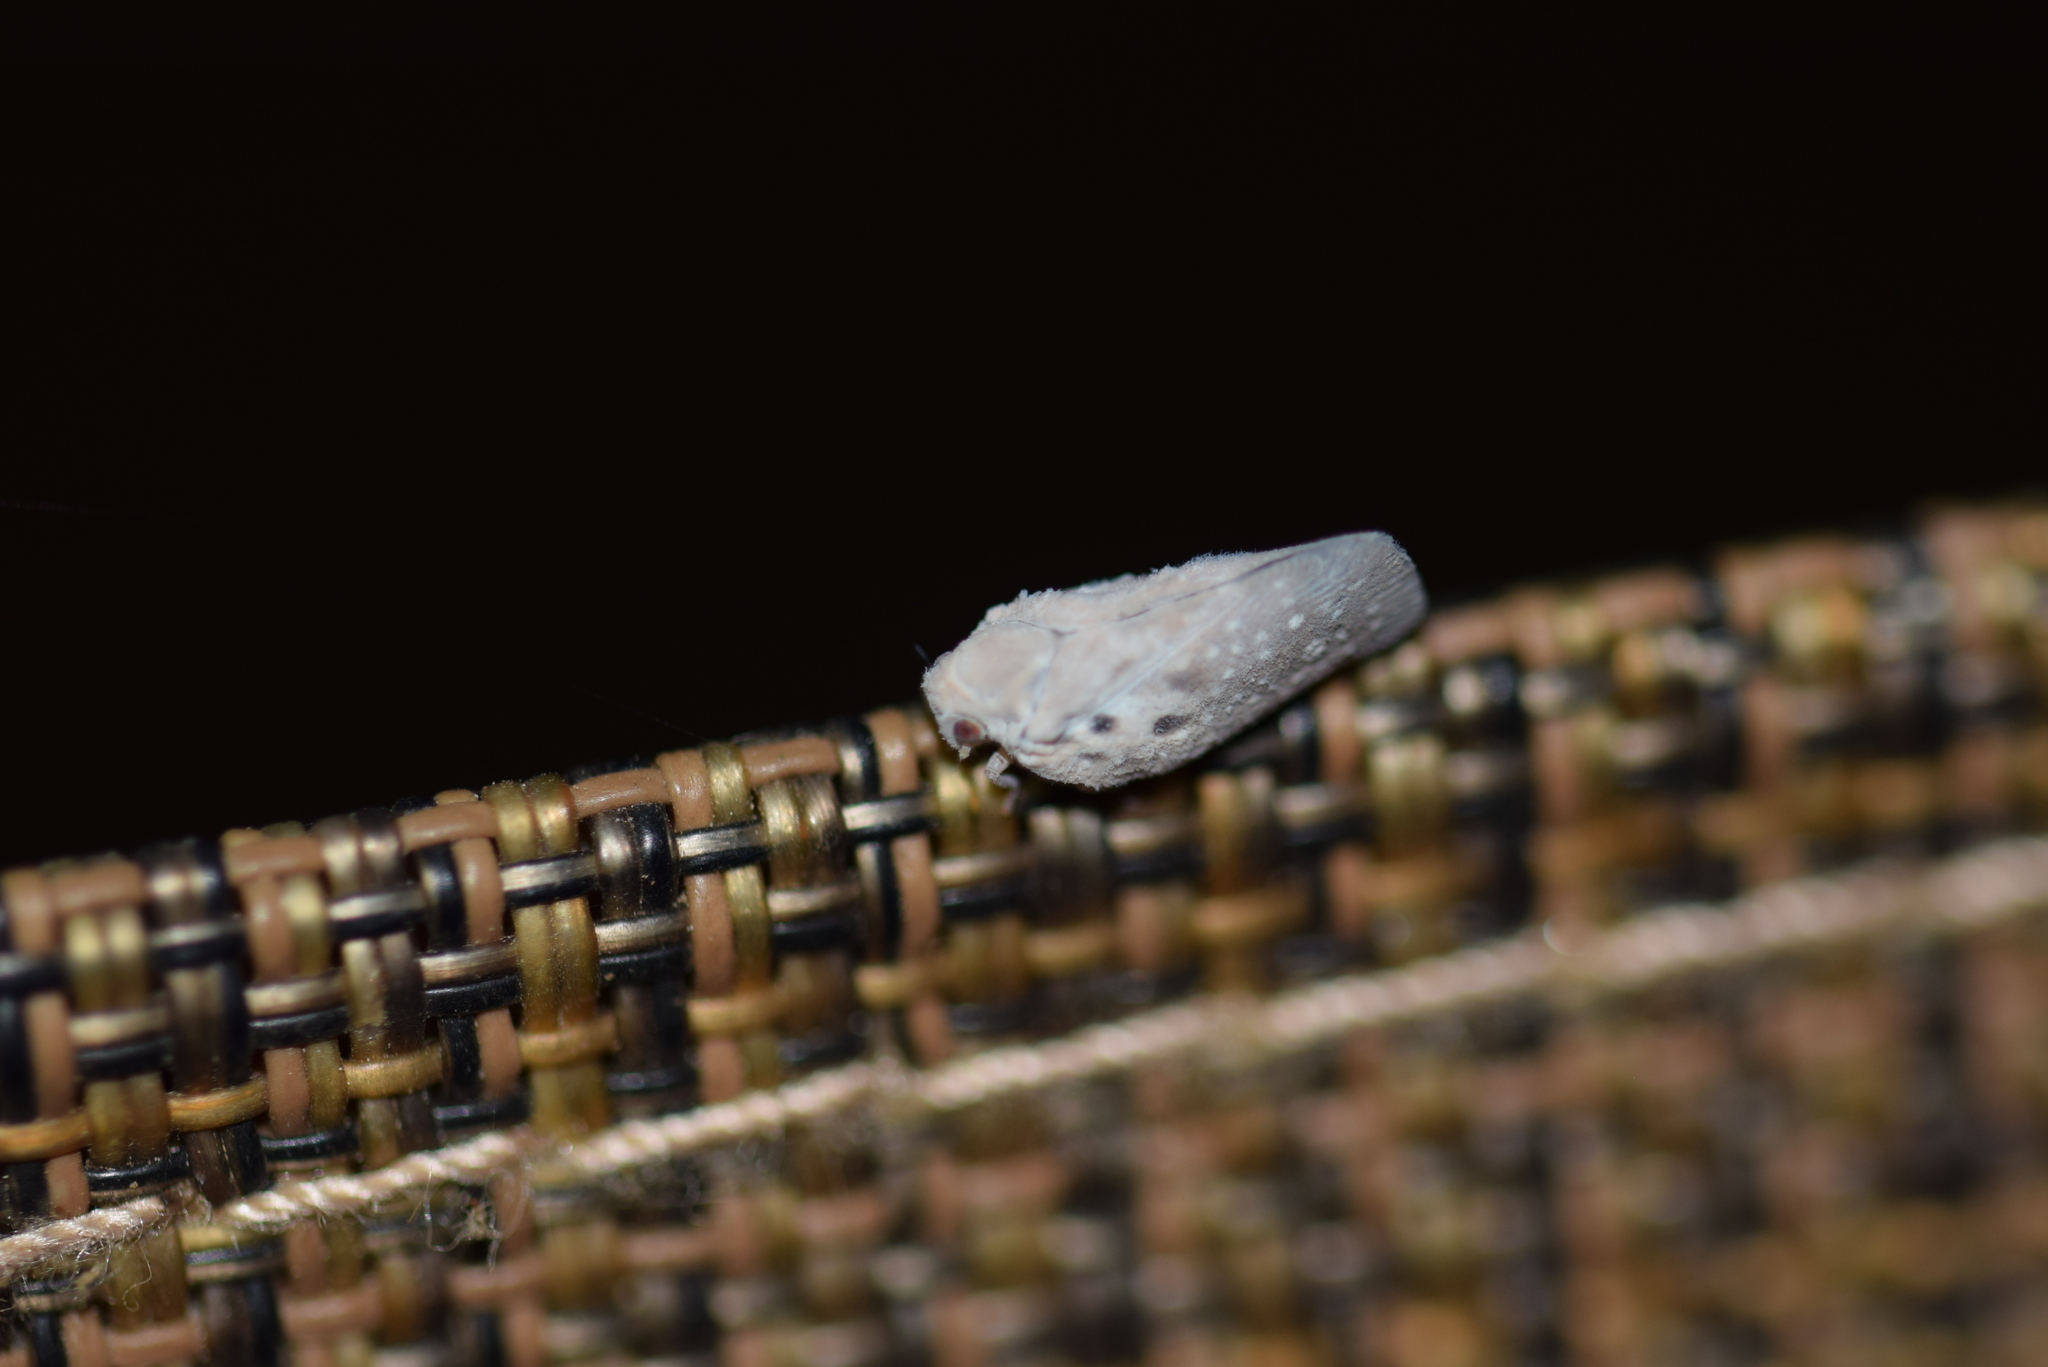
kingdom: Animalia
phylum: Arthropoda
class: Insecta
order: Hemiptera
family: Flatidae
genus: Metcalfa
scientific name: Metcalfa pruinosa
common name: Citrus flatid planthopper
